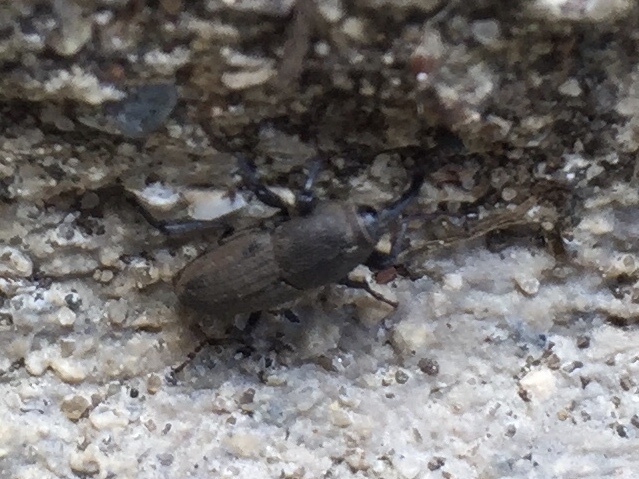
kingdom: Animalia
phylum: Arthropoda
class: Insecta
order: Coleoptera
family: Dryophthoridae
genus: Sphenophorus
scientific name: Sphenophorus interstitialis
